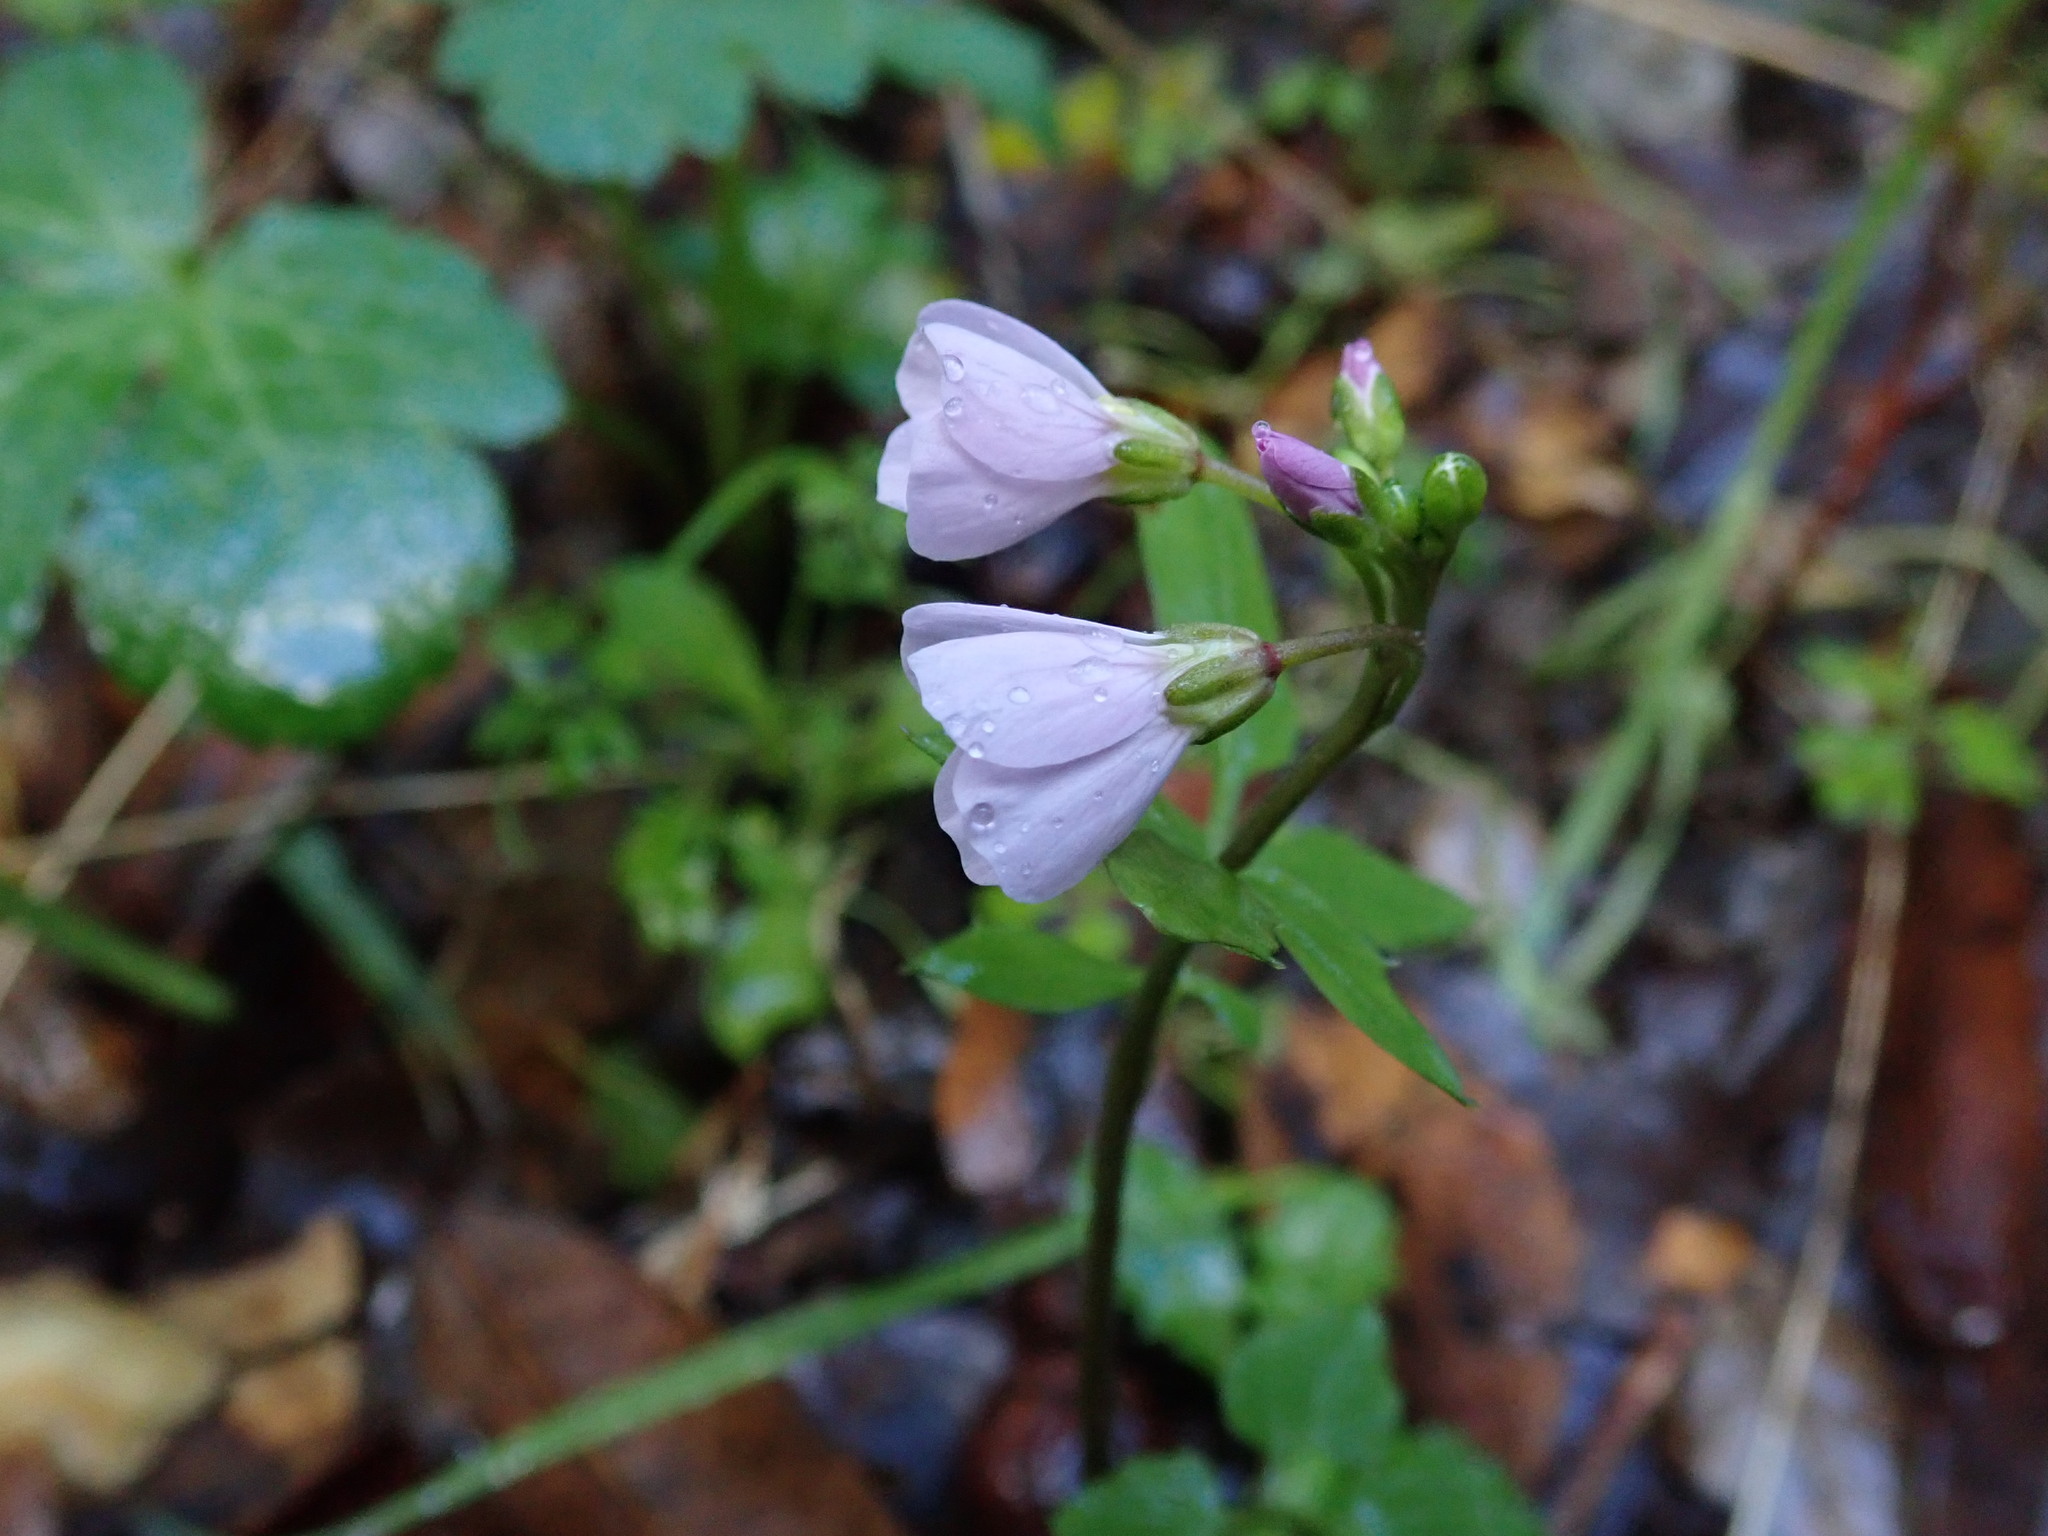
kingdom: Plantae
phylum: Tracheophyta
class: Magnoliopsida
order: Brassicales
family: Brassicaceae
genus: Cardamine
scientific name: Cardamine californica
